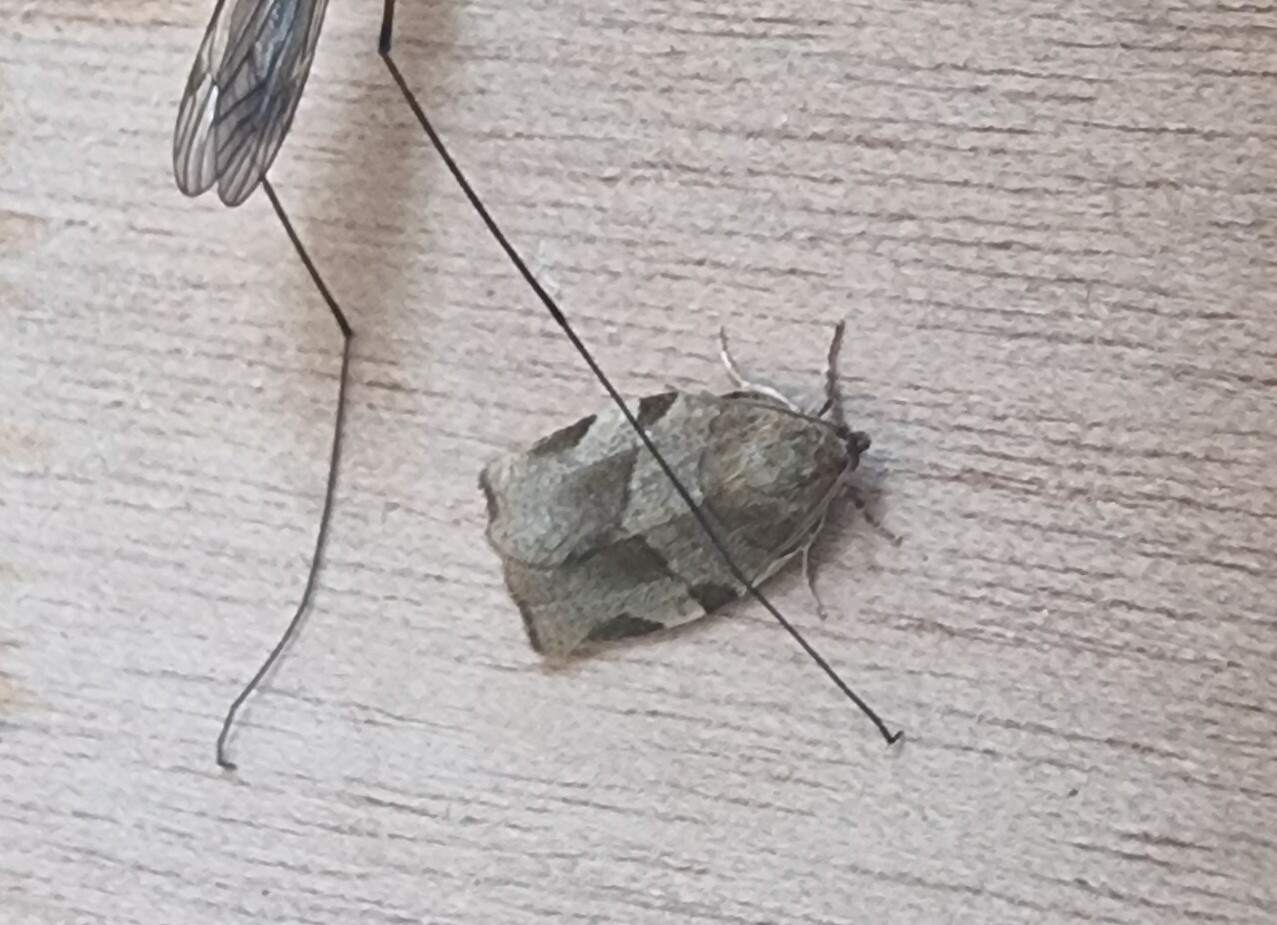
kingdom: Animalia
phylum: Arthropoda
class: Insecta
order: Lepidoptera
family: Tortricidae
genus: Choristoneura
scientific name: Choristoneura hebenstreitella
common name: Great twist
